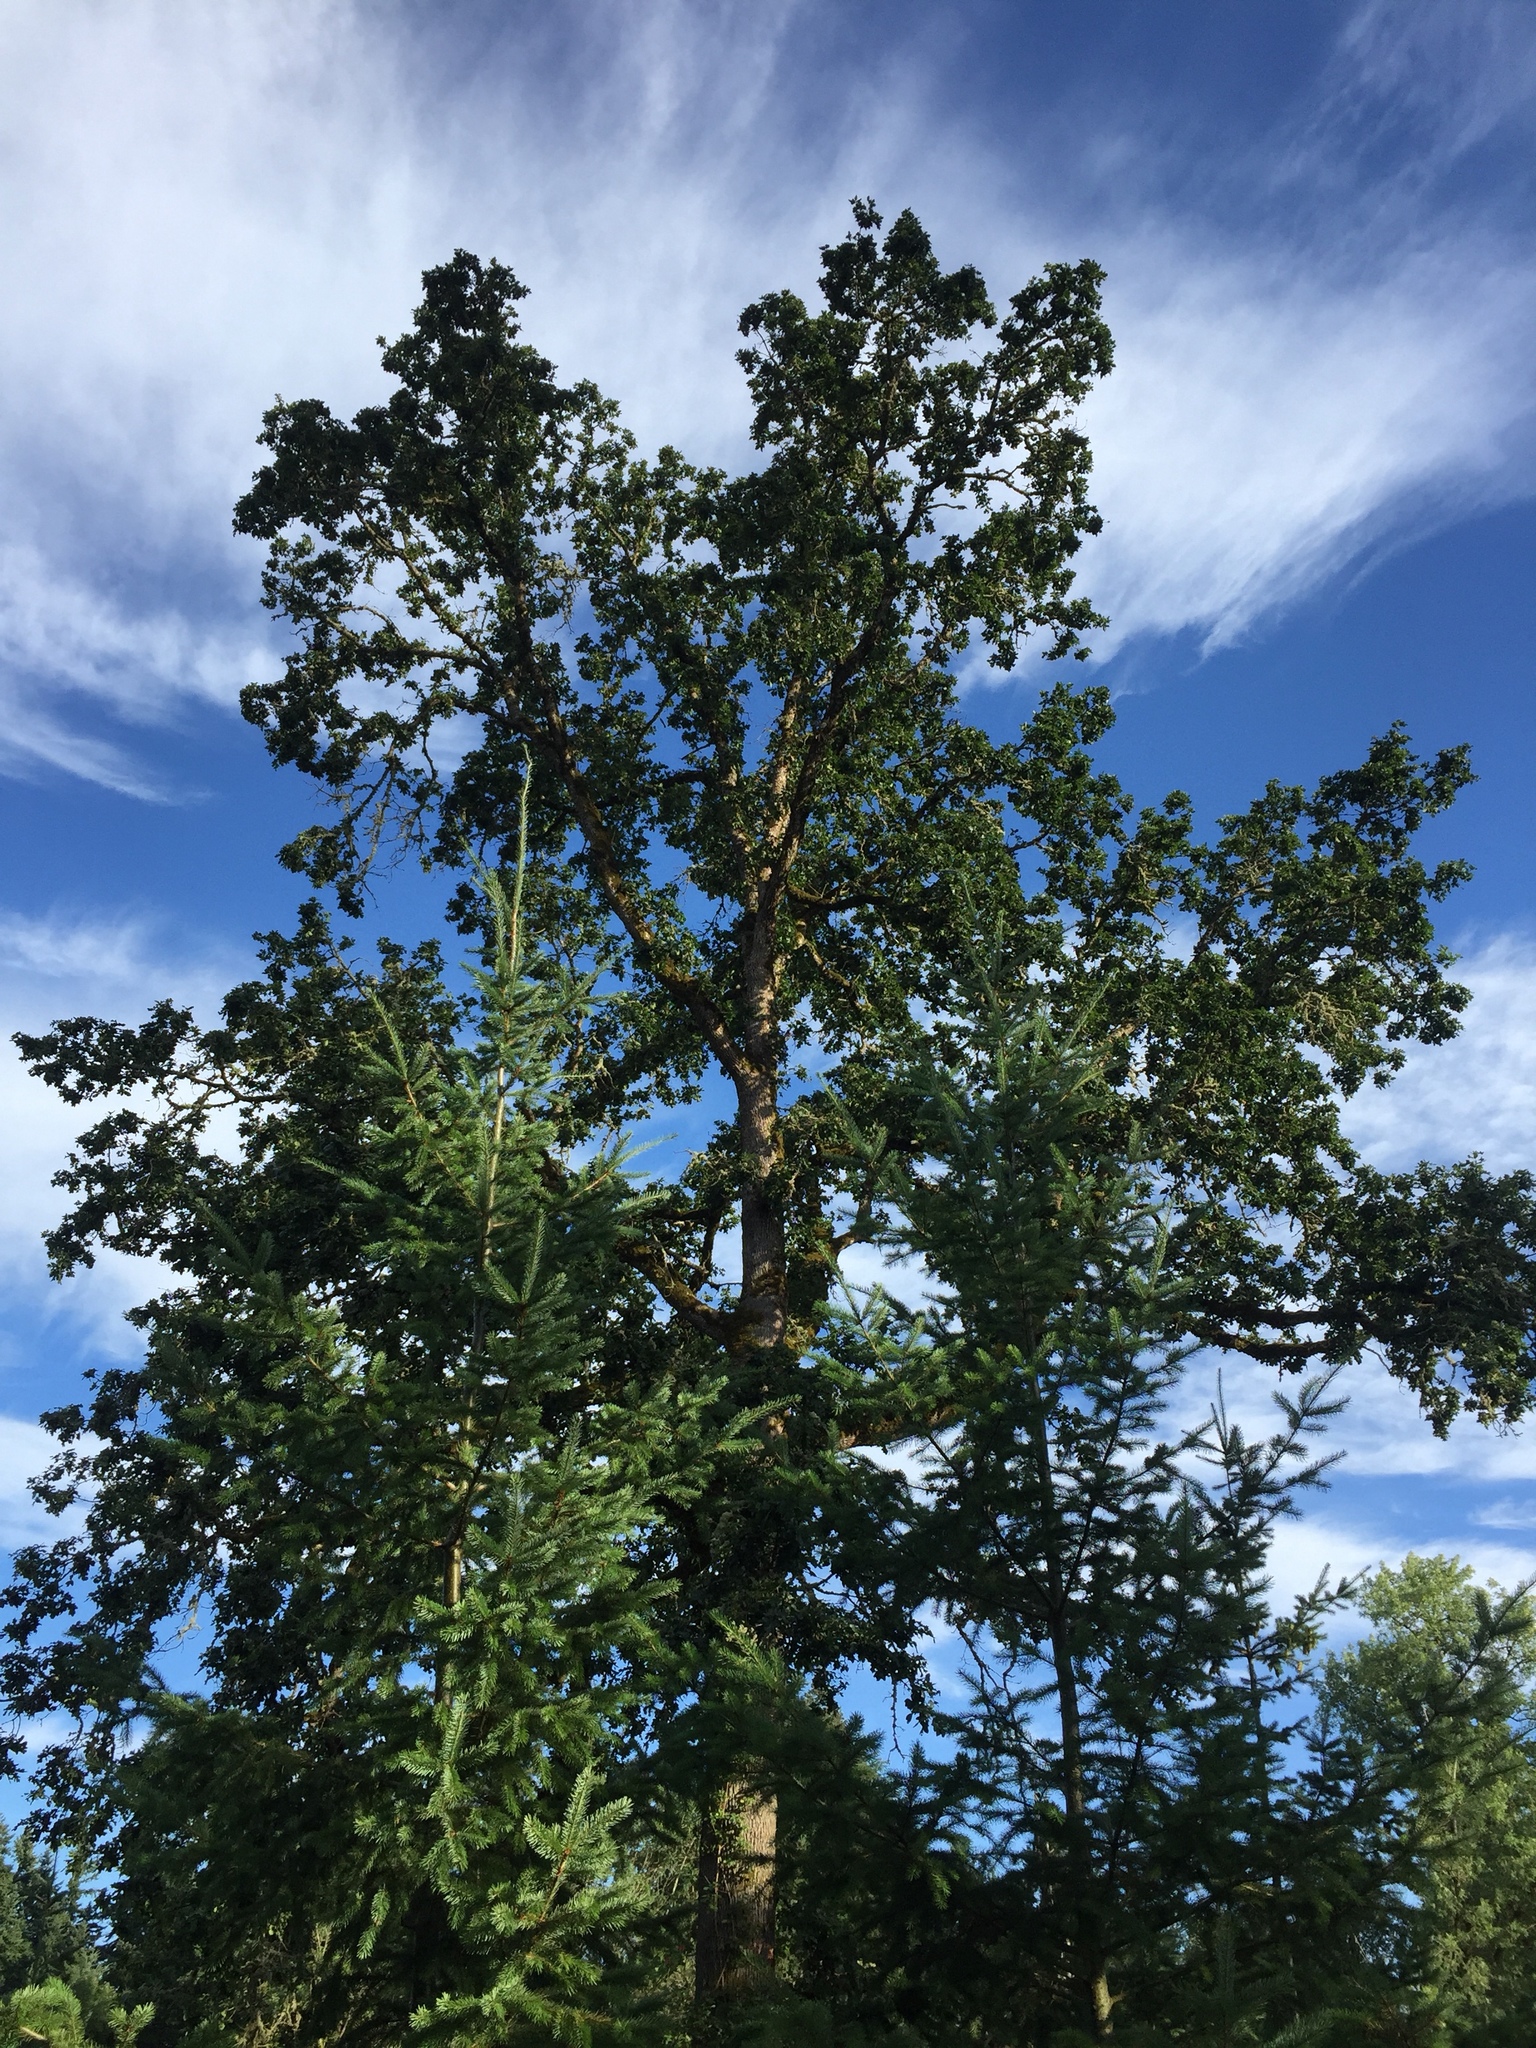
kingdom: Plantae
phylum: Tracheophyta
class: Magnoliopsida
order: Fagales
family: Fagaceae
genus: Quercus
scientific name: Quercus garryana
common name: Garry oak
